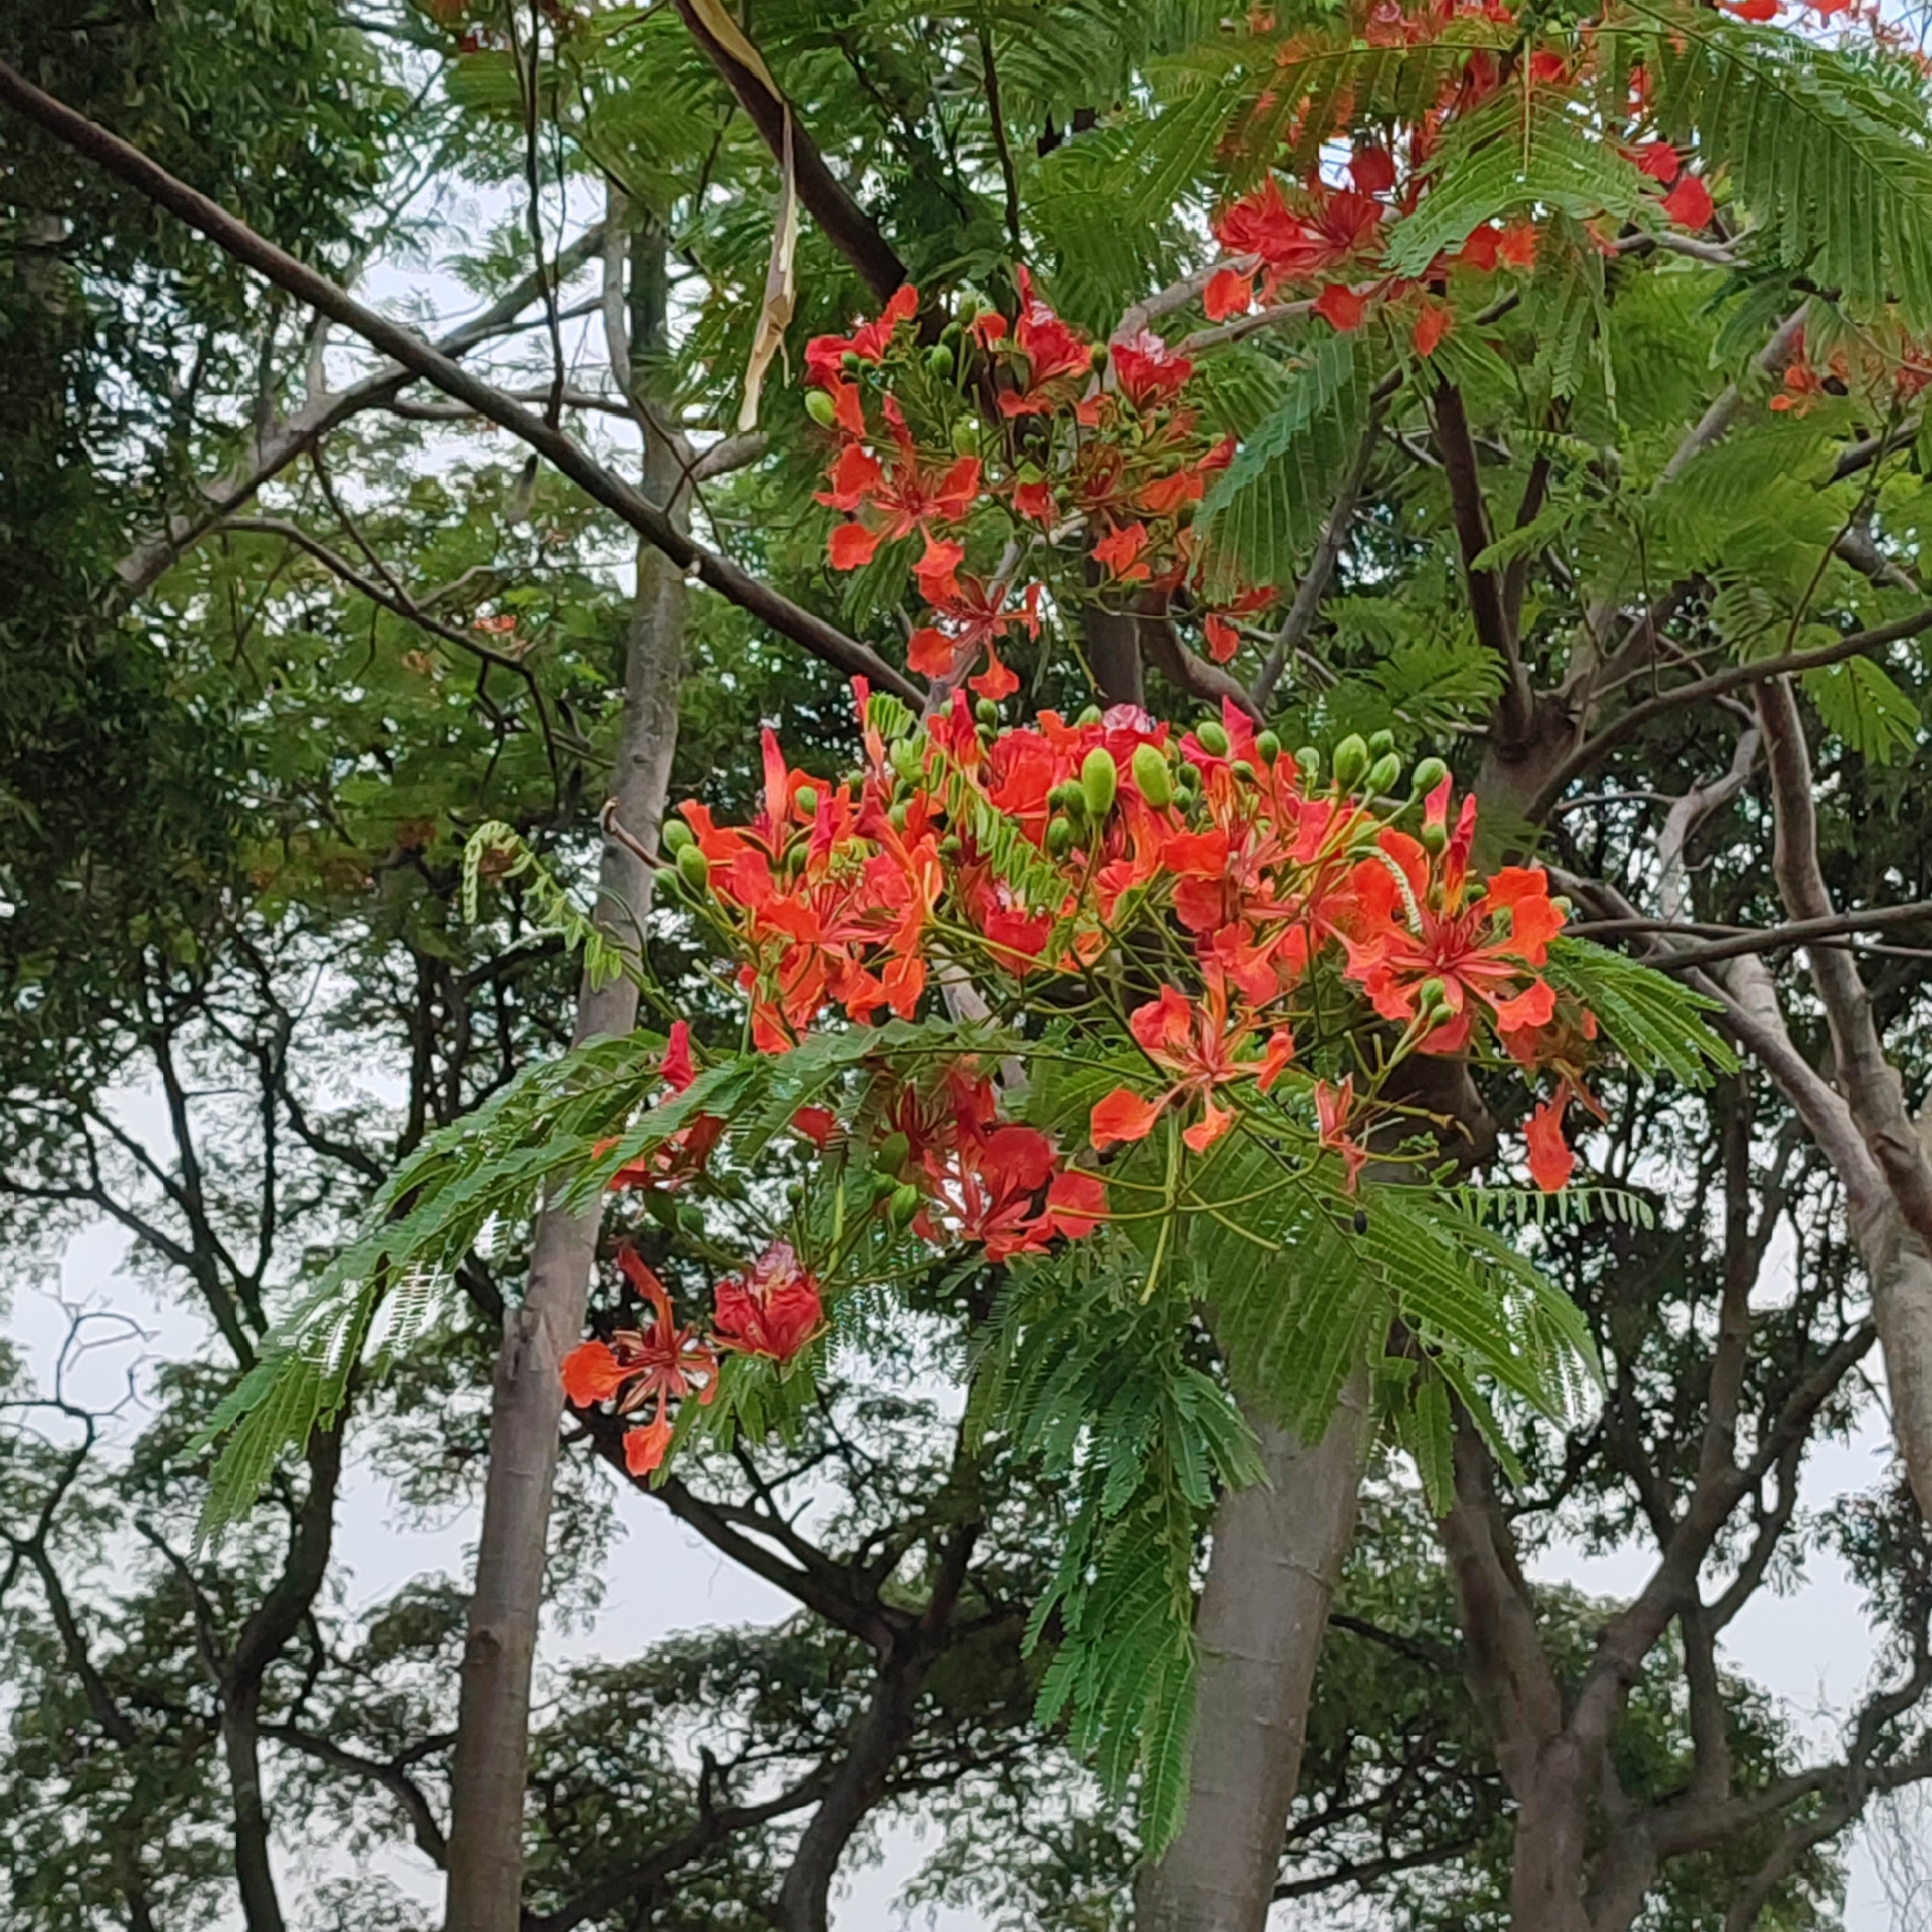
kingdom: Plantae
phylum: Tracheophyta
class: Magnoliopsida
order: Fabales
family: Fabaceae
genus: Delonix
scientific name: Delonix regia
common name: Royal poinciana
